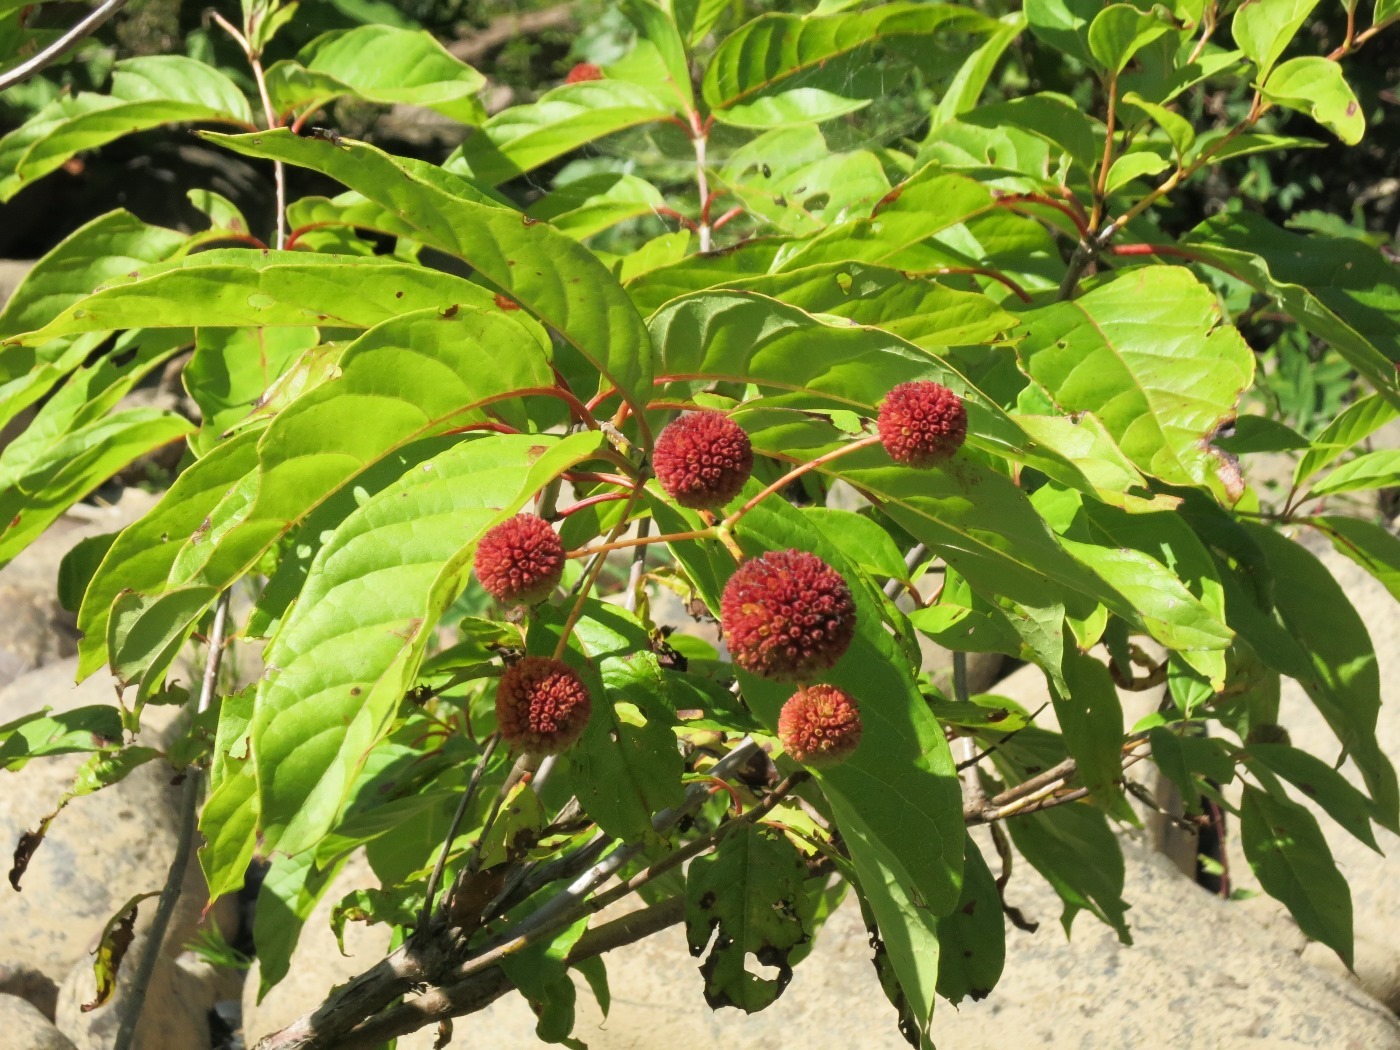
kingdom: Plantae
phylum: Tracheophyta
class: Magnoliopsida
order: Gentianales
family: Rubiaceae
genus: Cephalanthus
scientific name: Cephalanthus occidentalis
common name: Button-willow
